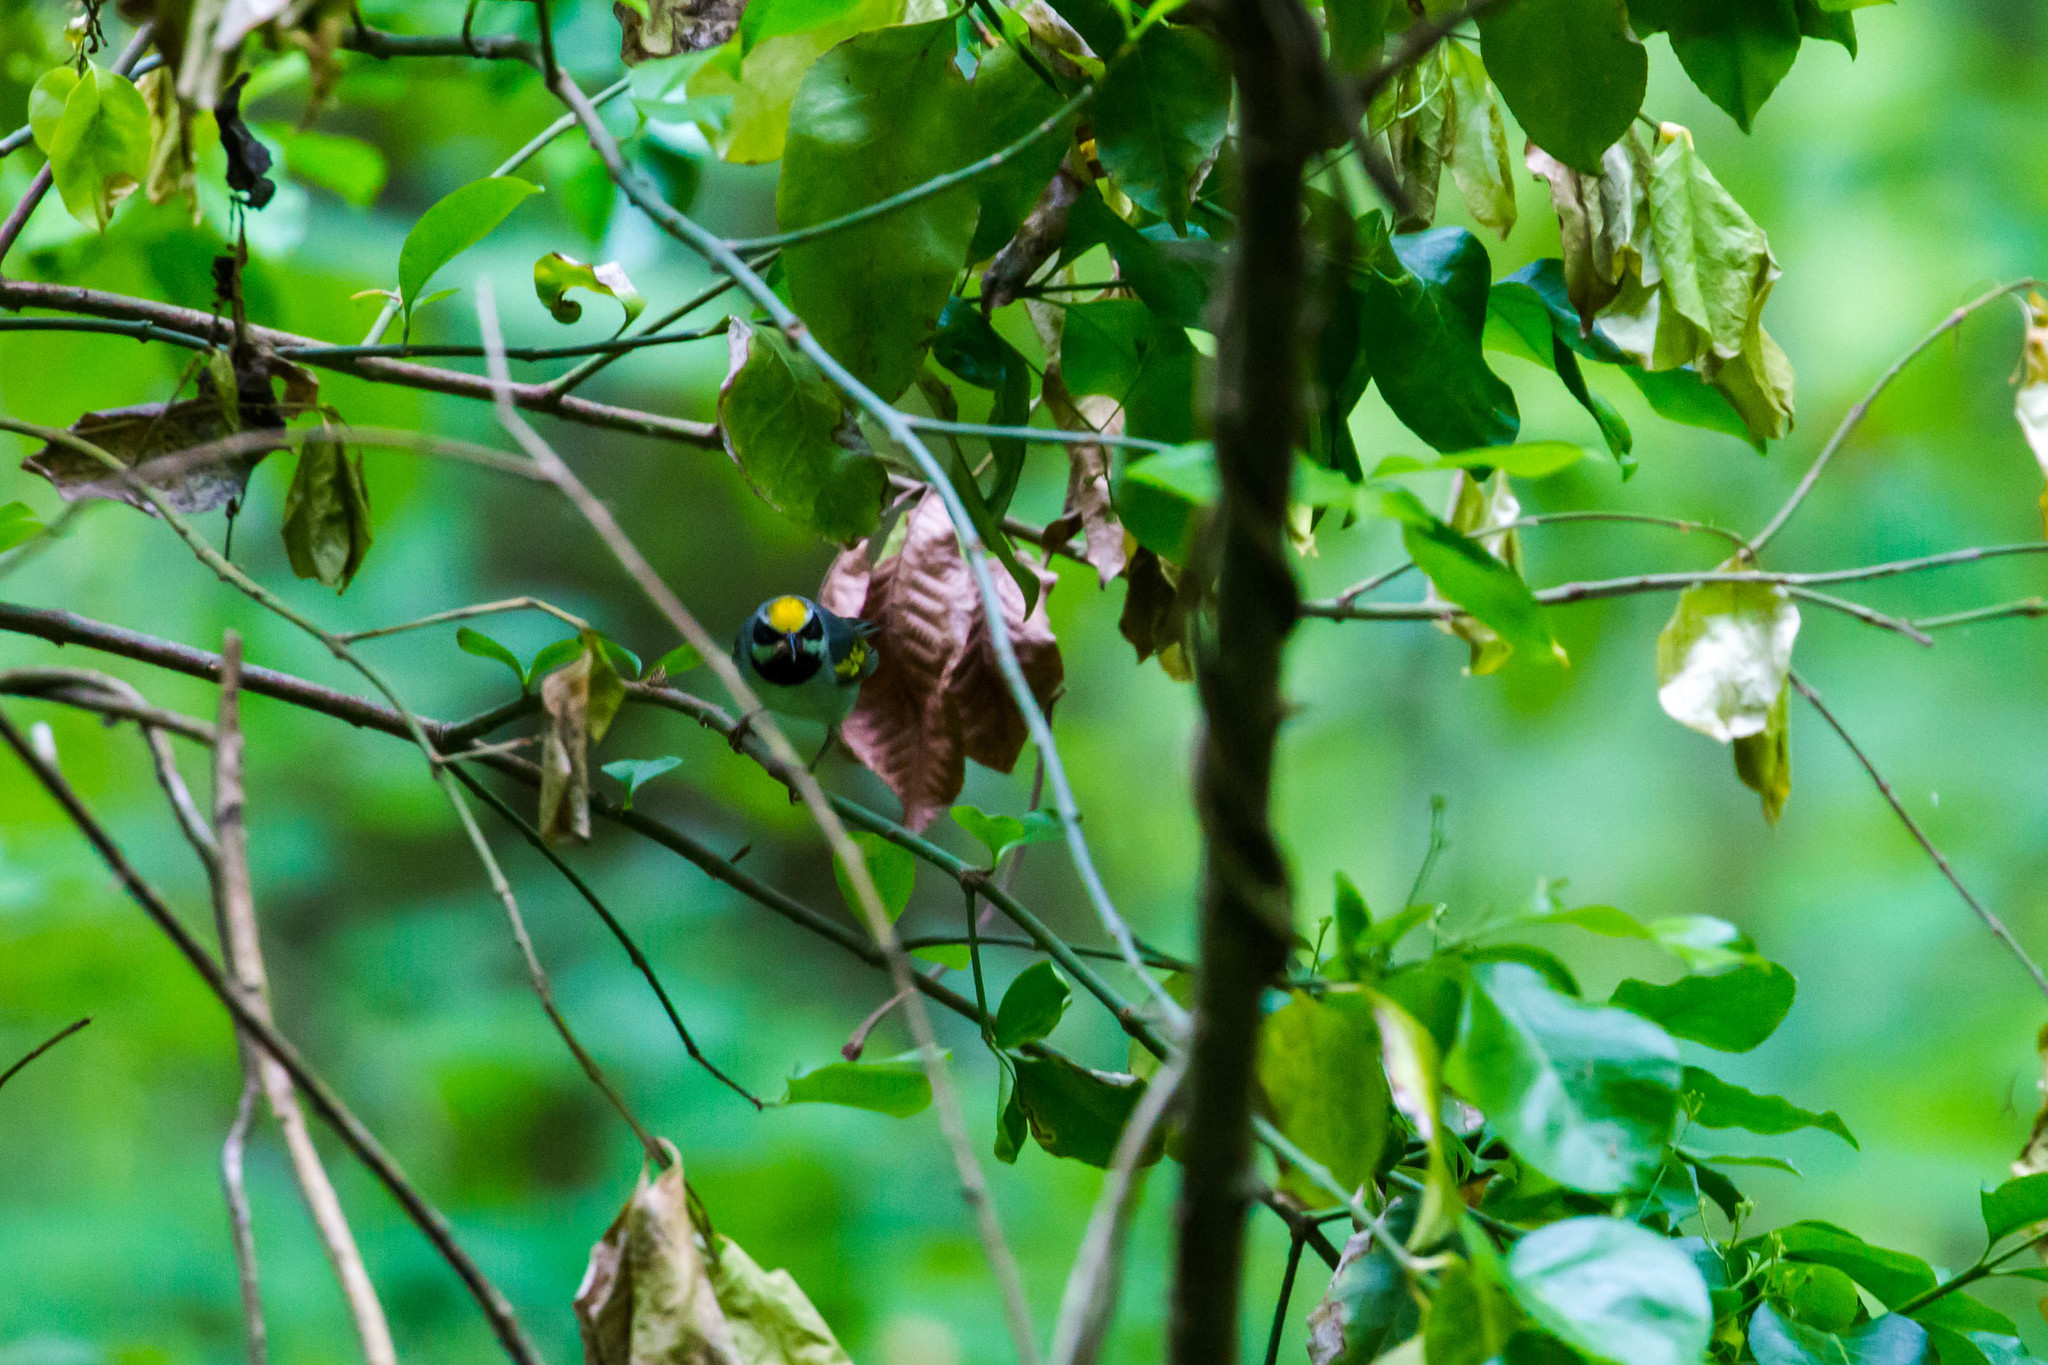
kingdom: Animalia
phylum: Chordata
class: Aves
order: Passeriformes
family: Parulidae
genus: Vermivora
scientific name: Vermivora chrysoptera
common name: Golden-winged warbler
